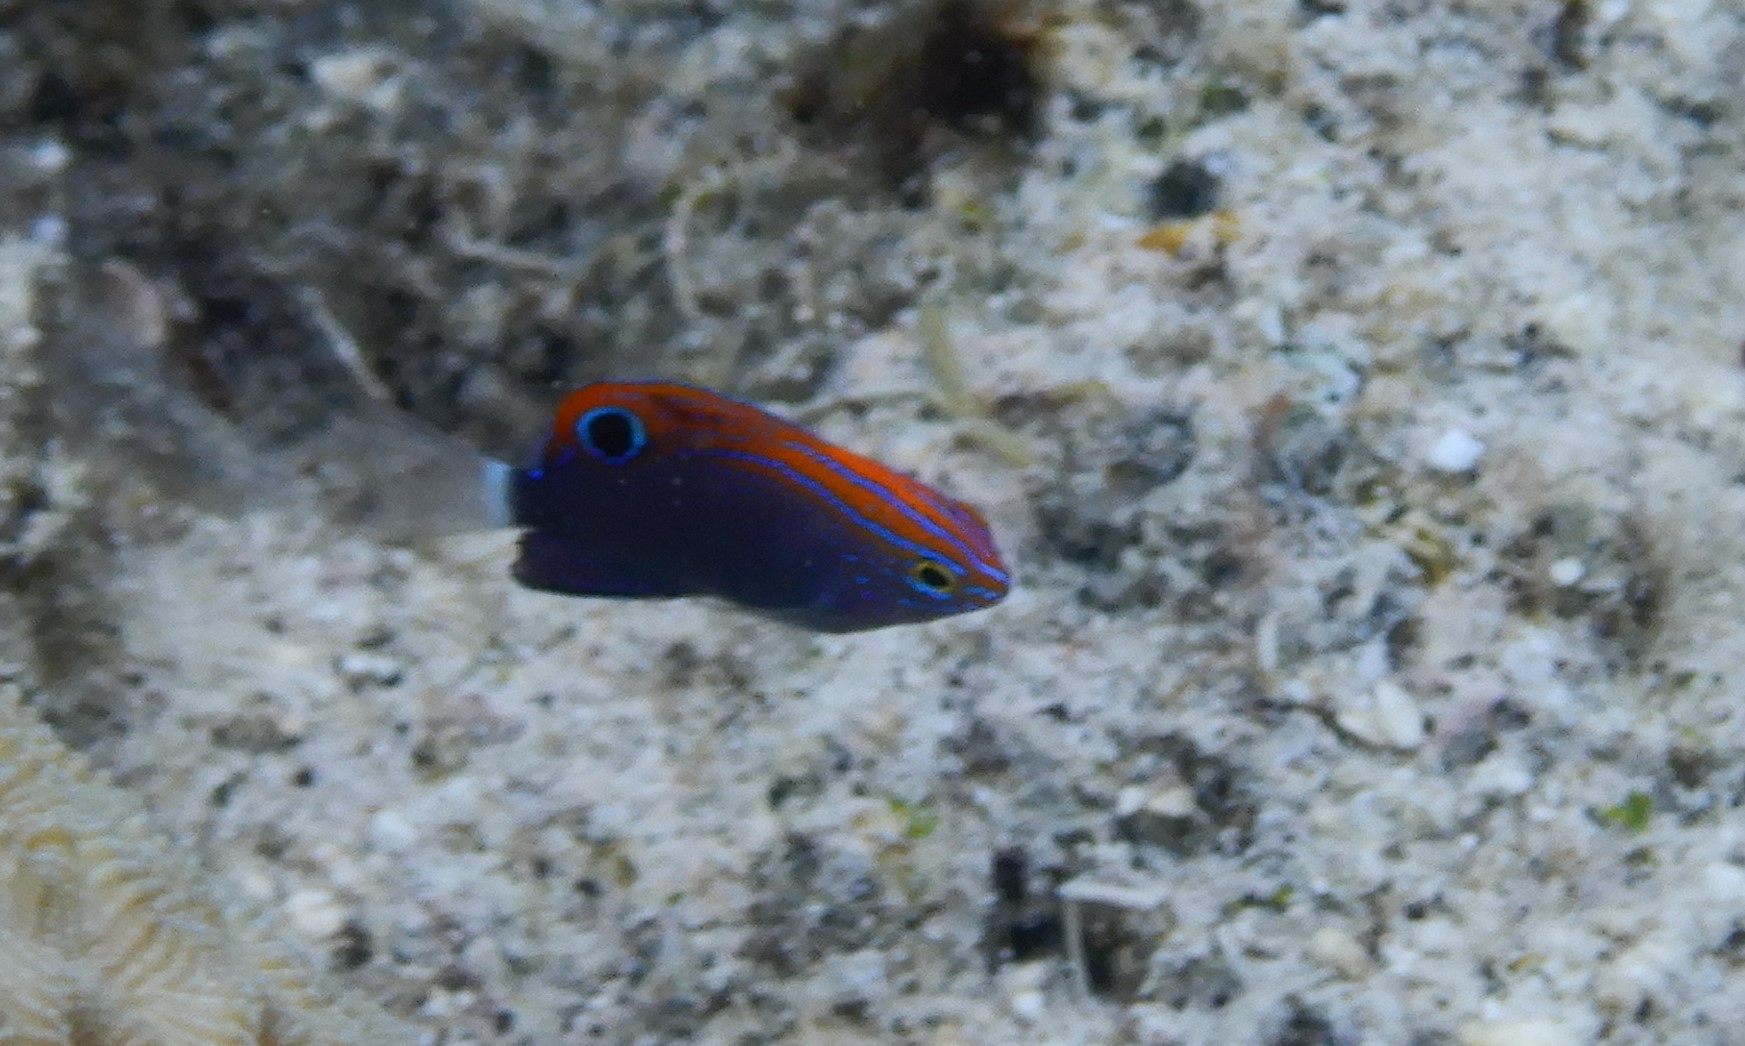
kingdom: Animalia
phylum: Chordata
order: Perciformes
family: Pomacentridae
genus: Pomacentrus
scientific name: Pomacentrus bankanensis
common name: Speckled damsel
